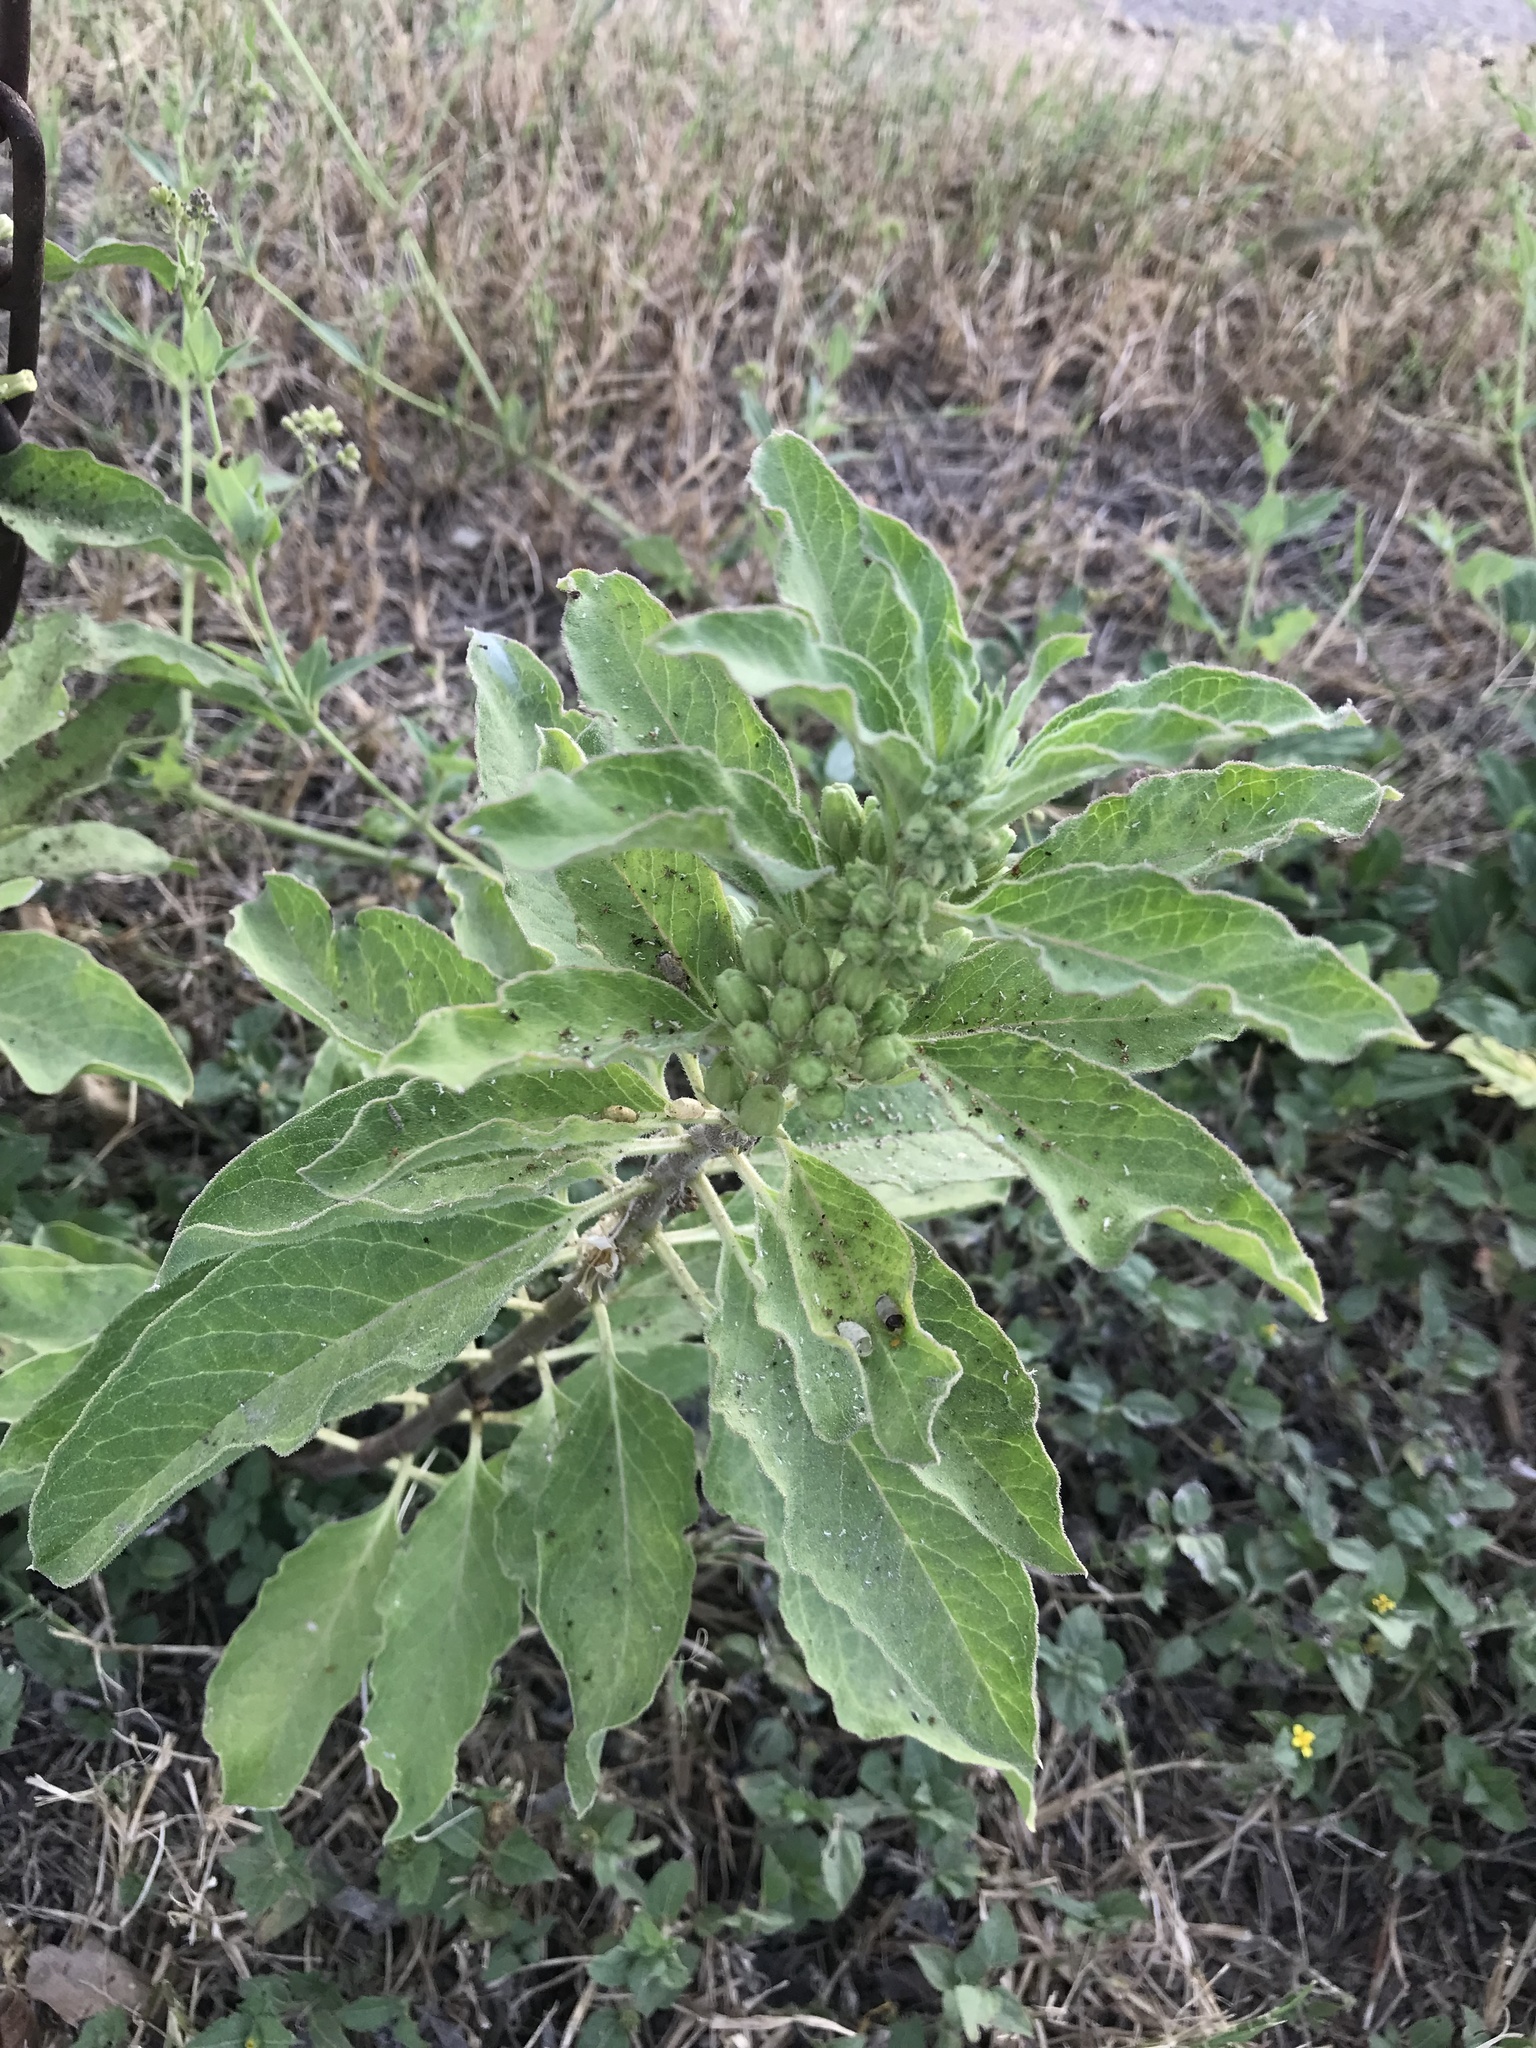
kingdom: Plantae
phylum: Tracheophyta
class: Magnoliopsida
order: Gentianales
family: Apocynaceae
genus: Asclepias
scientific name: Asclepias oenotheroides
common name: Zizotes milkweed
